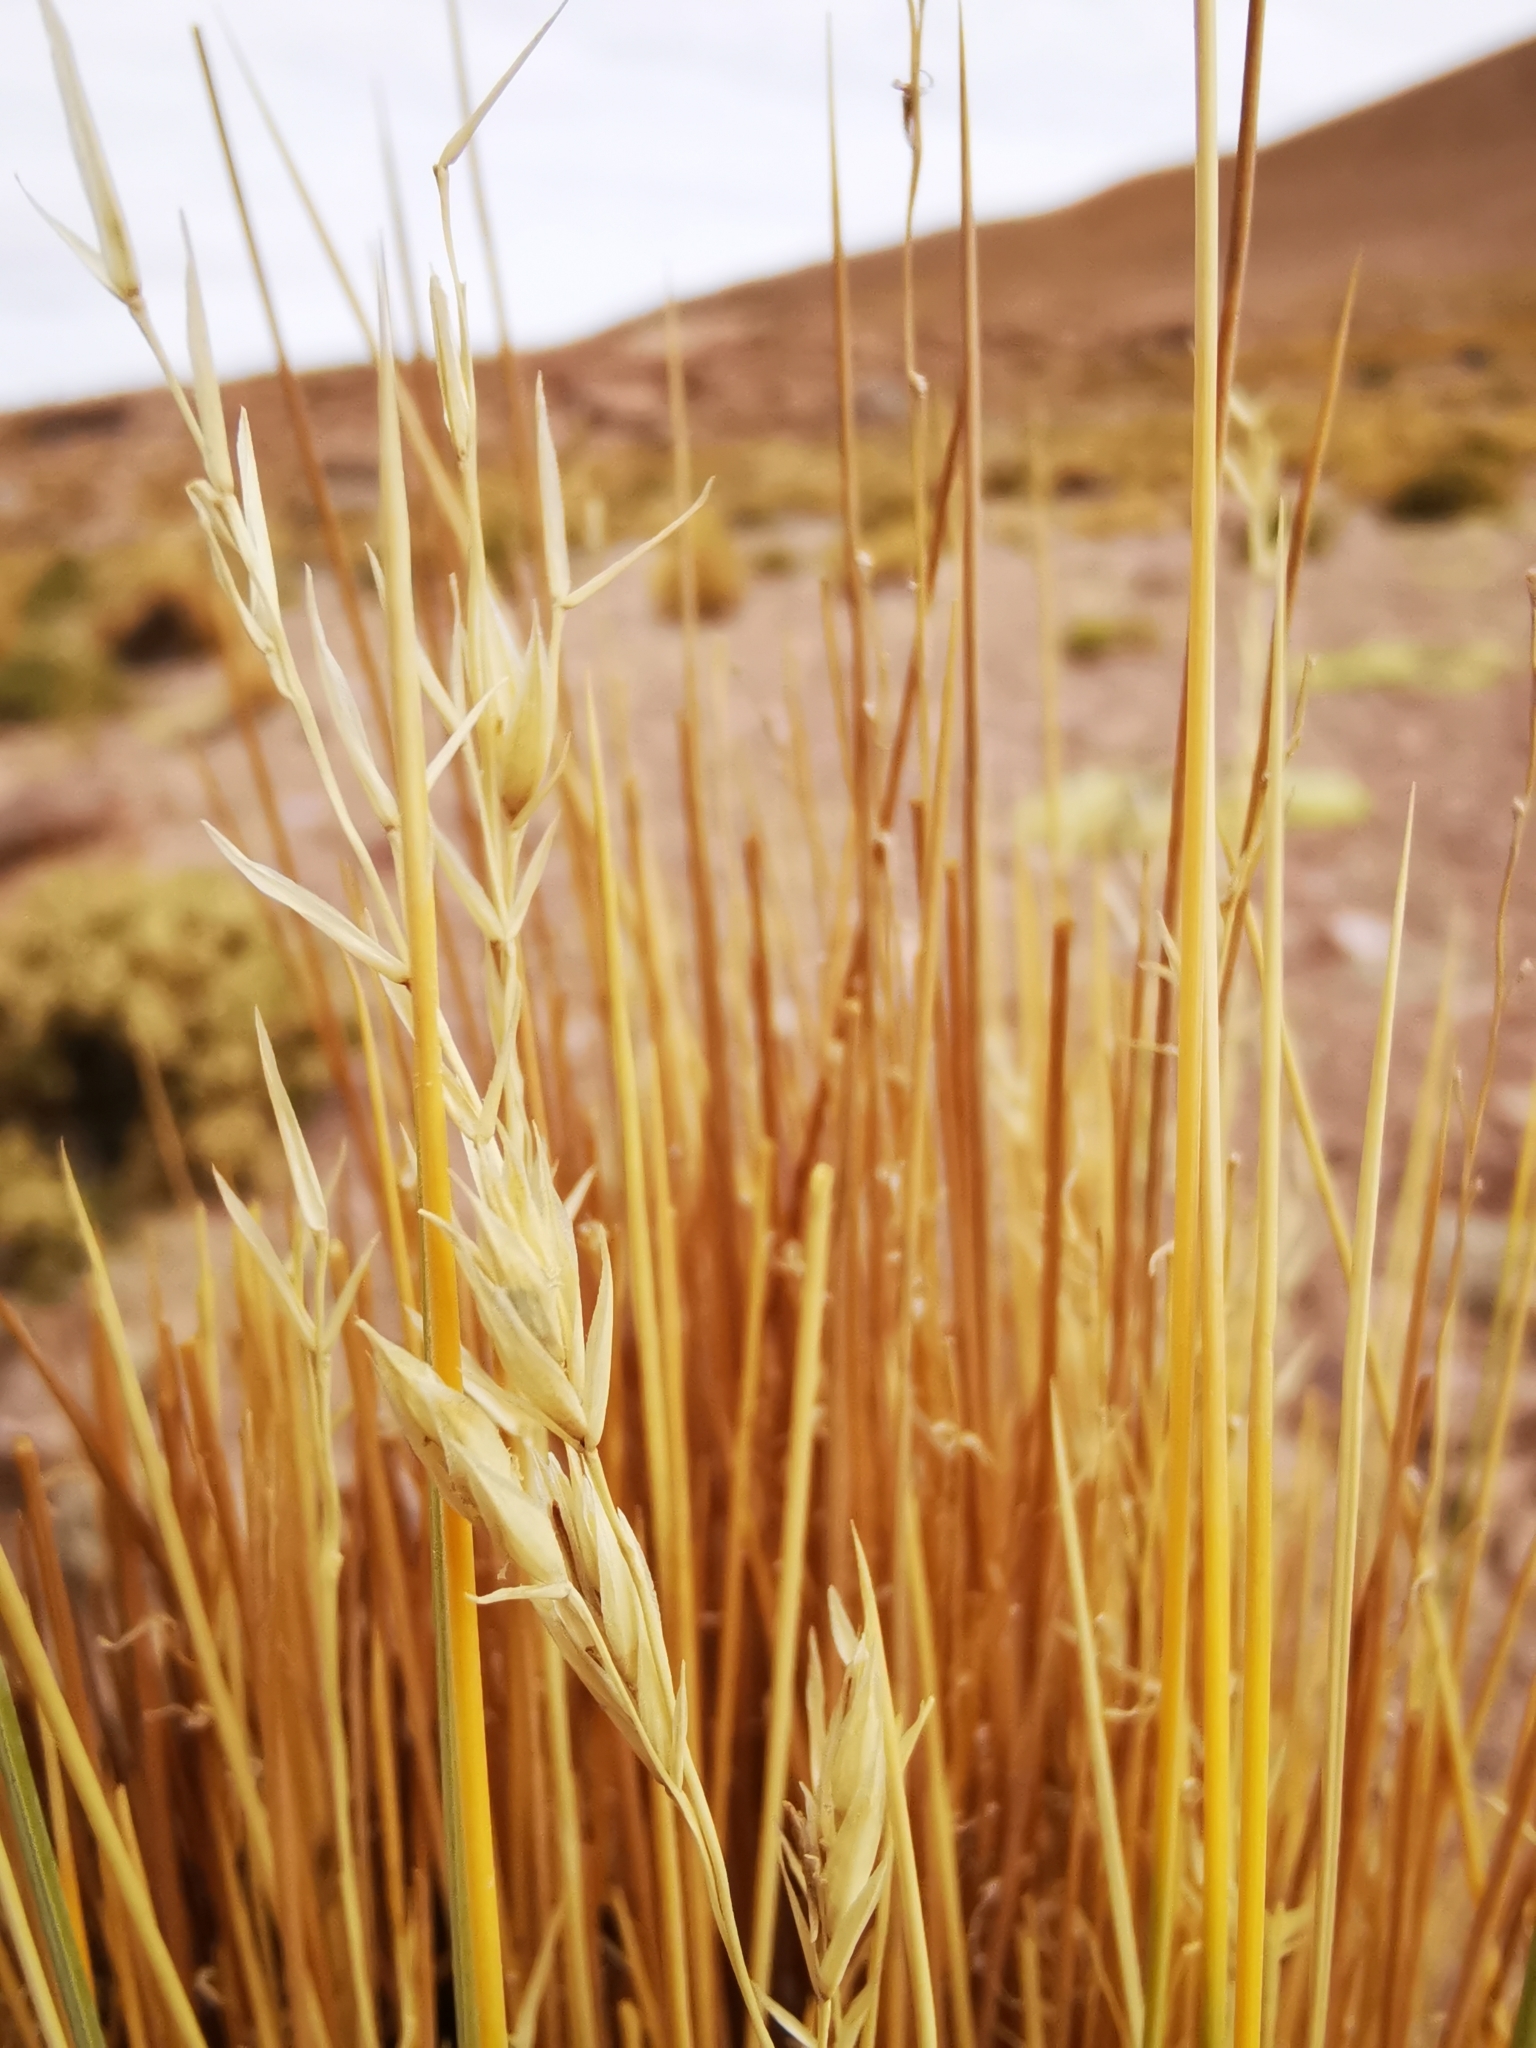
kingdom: Plantae
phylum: Tracheophyta
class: Liliopsida
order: Poales
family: Poaceae
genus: Festuca
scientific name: Festuca chrysophylla
